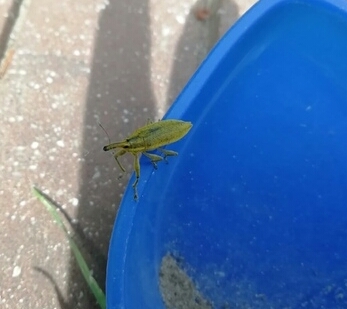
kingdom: Animalia
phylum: Arthropoda
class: Insecta
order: Coleoptera
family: Curculionidae
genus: Lixus
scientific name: Lixus iridis
